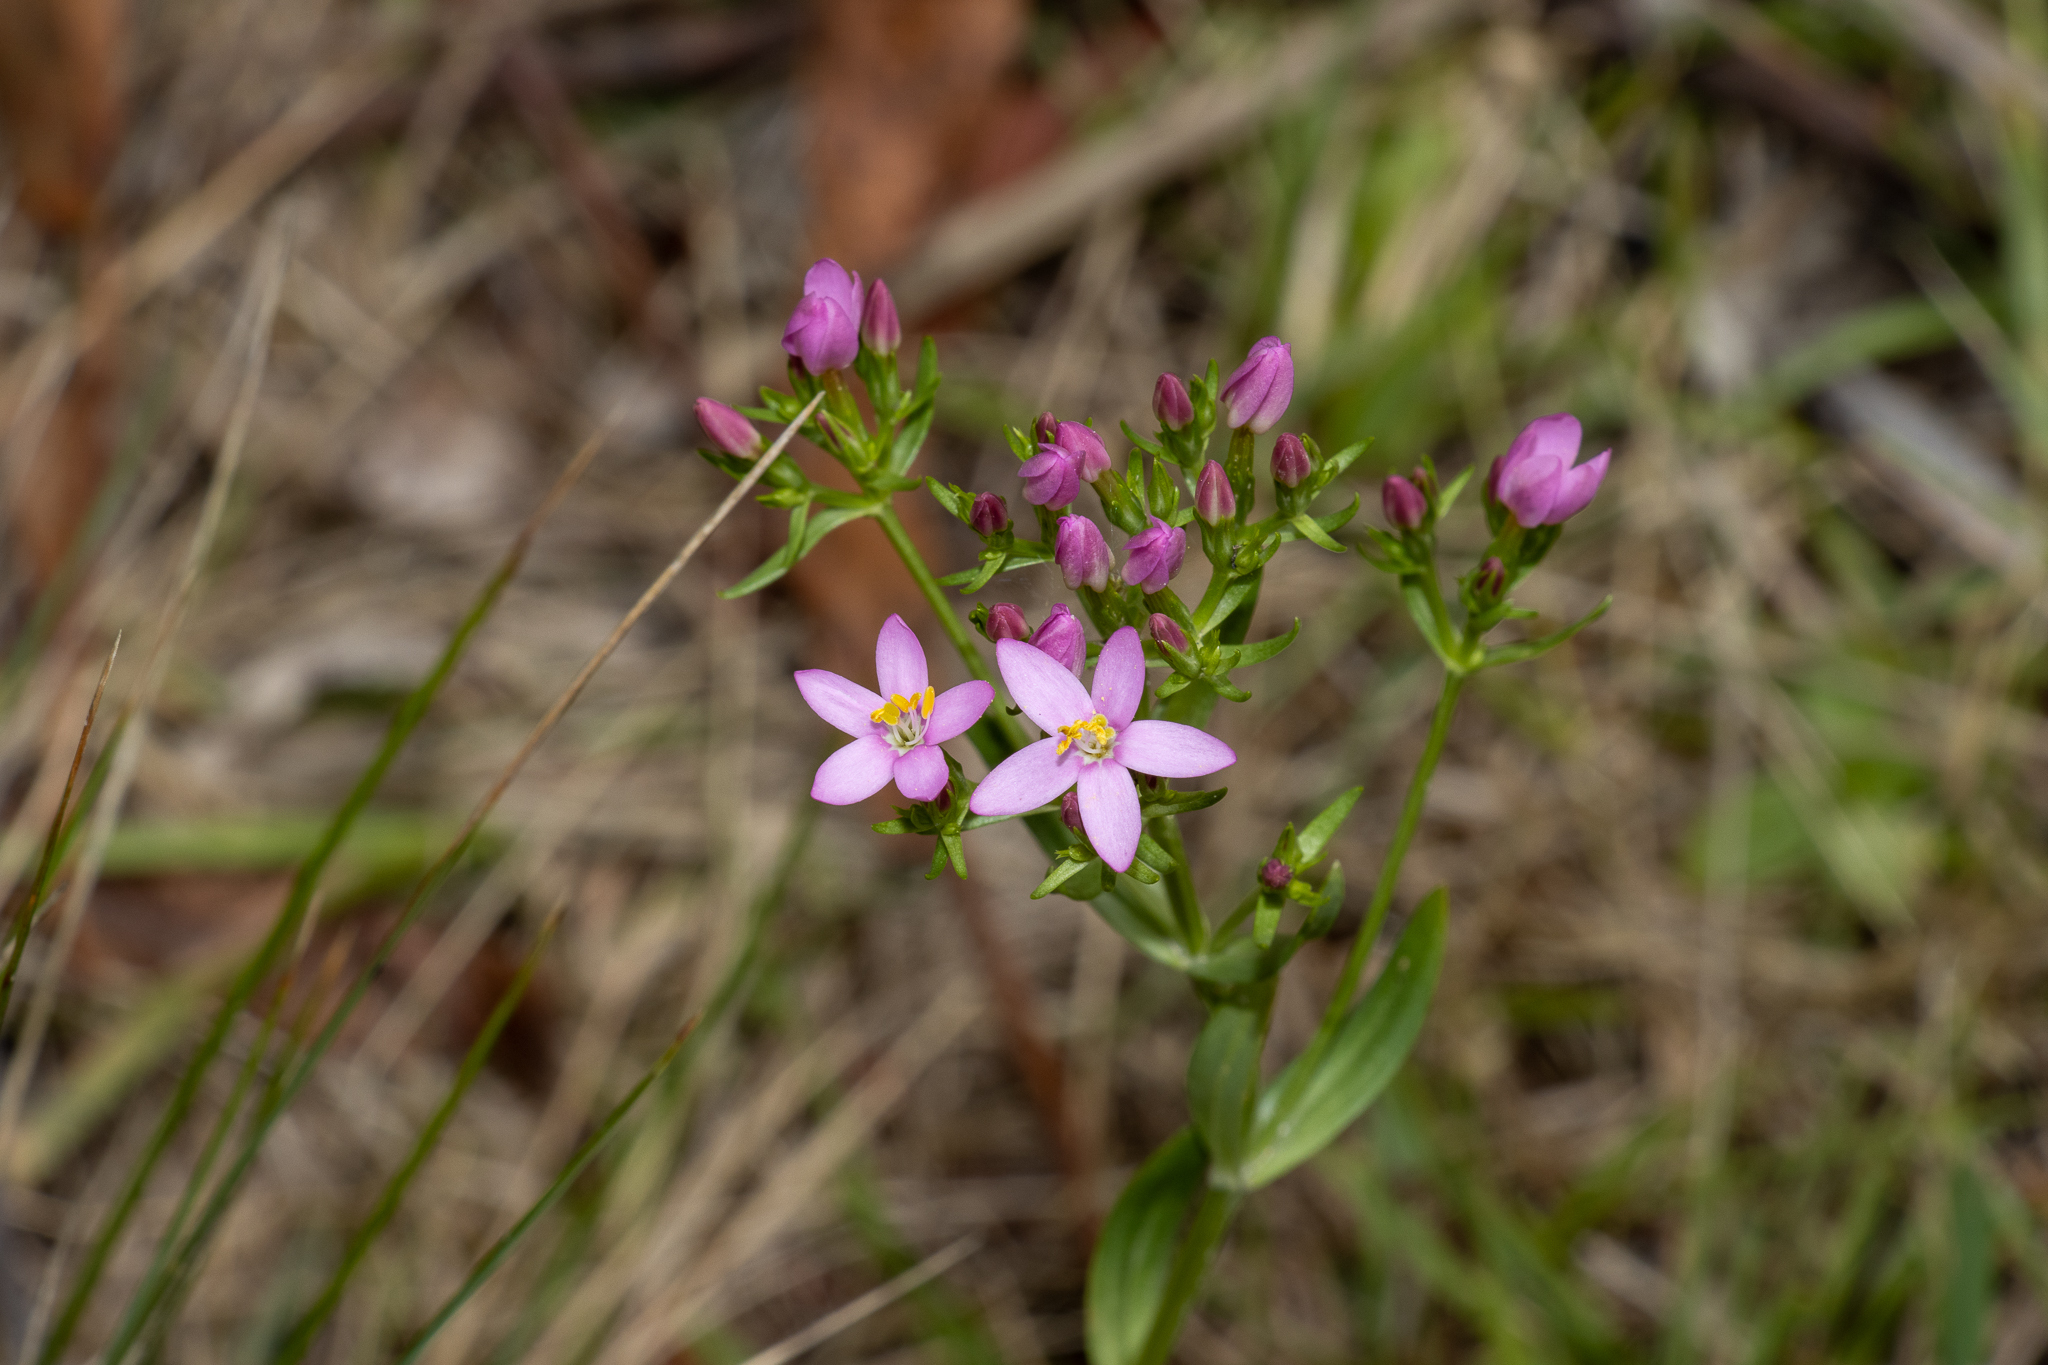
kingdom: Plantae
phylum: Tracheophyta
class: Magnoliopsida
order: Gentianales
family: Gentianaceae
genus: Centaurium
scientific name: Centaurium erythraea
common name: Common centaury
